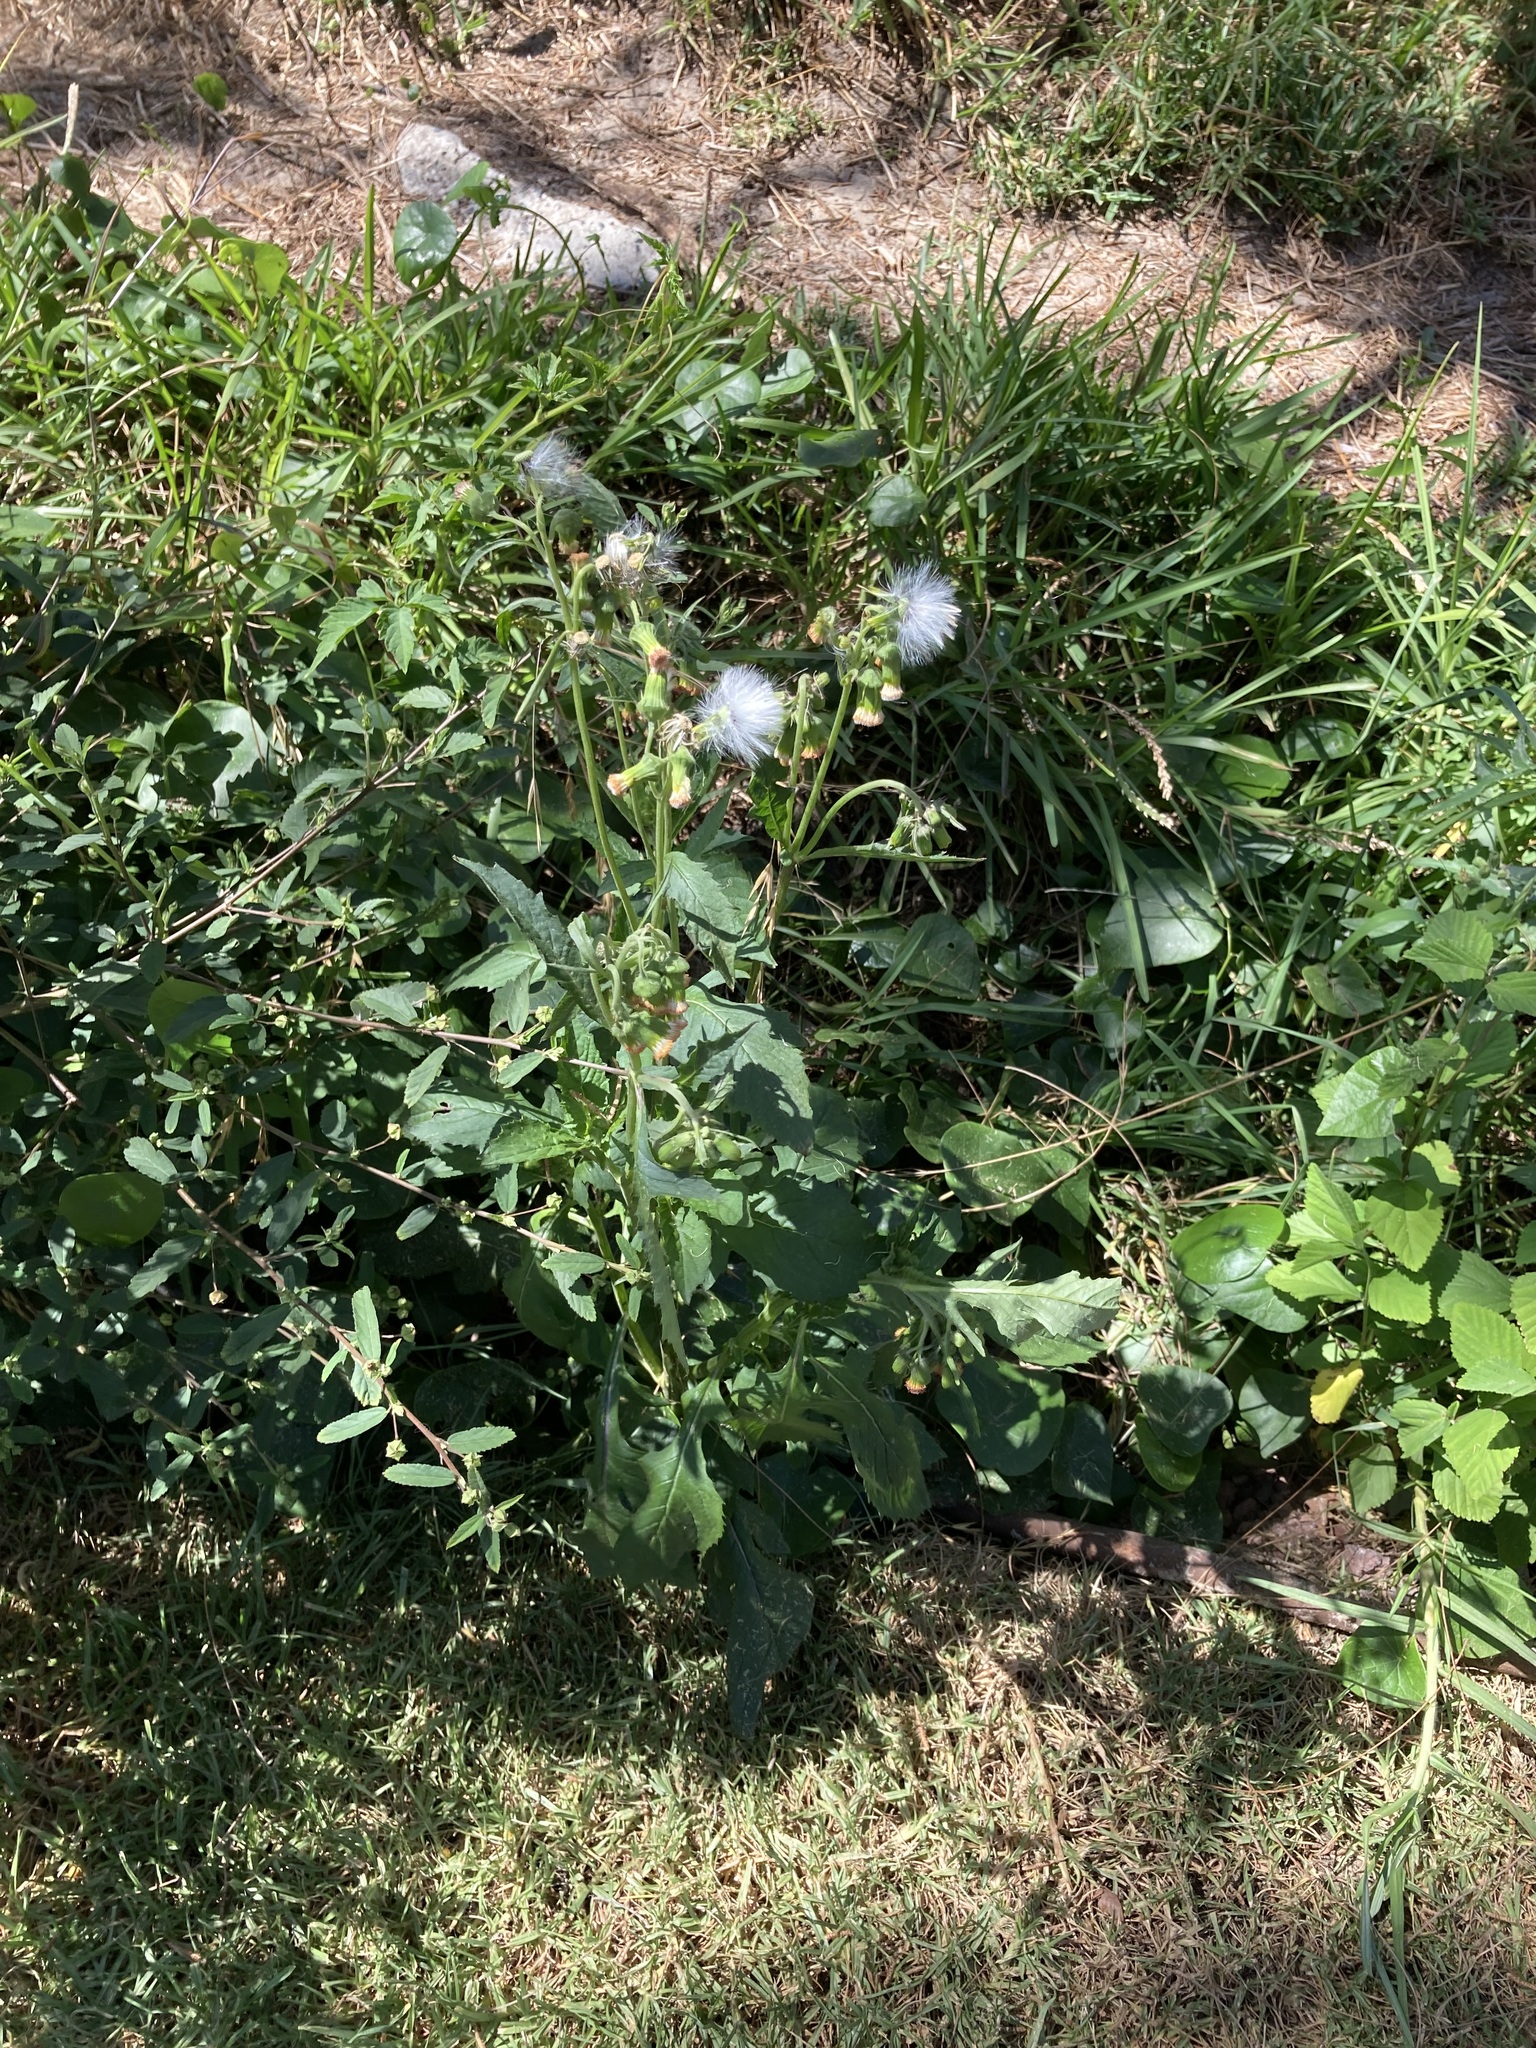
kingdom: Plantae
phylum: Tracheophyta
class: Magnoliopsida
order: Asterales
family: Asteraceae
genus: Crassocephalum
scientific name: Crassocephalum crepidioides
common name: Redflower ragleaf
